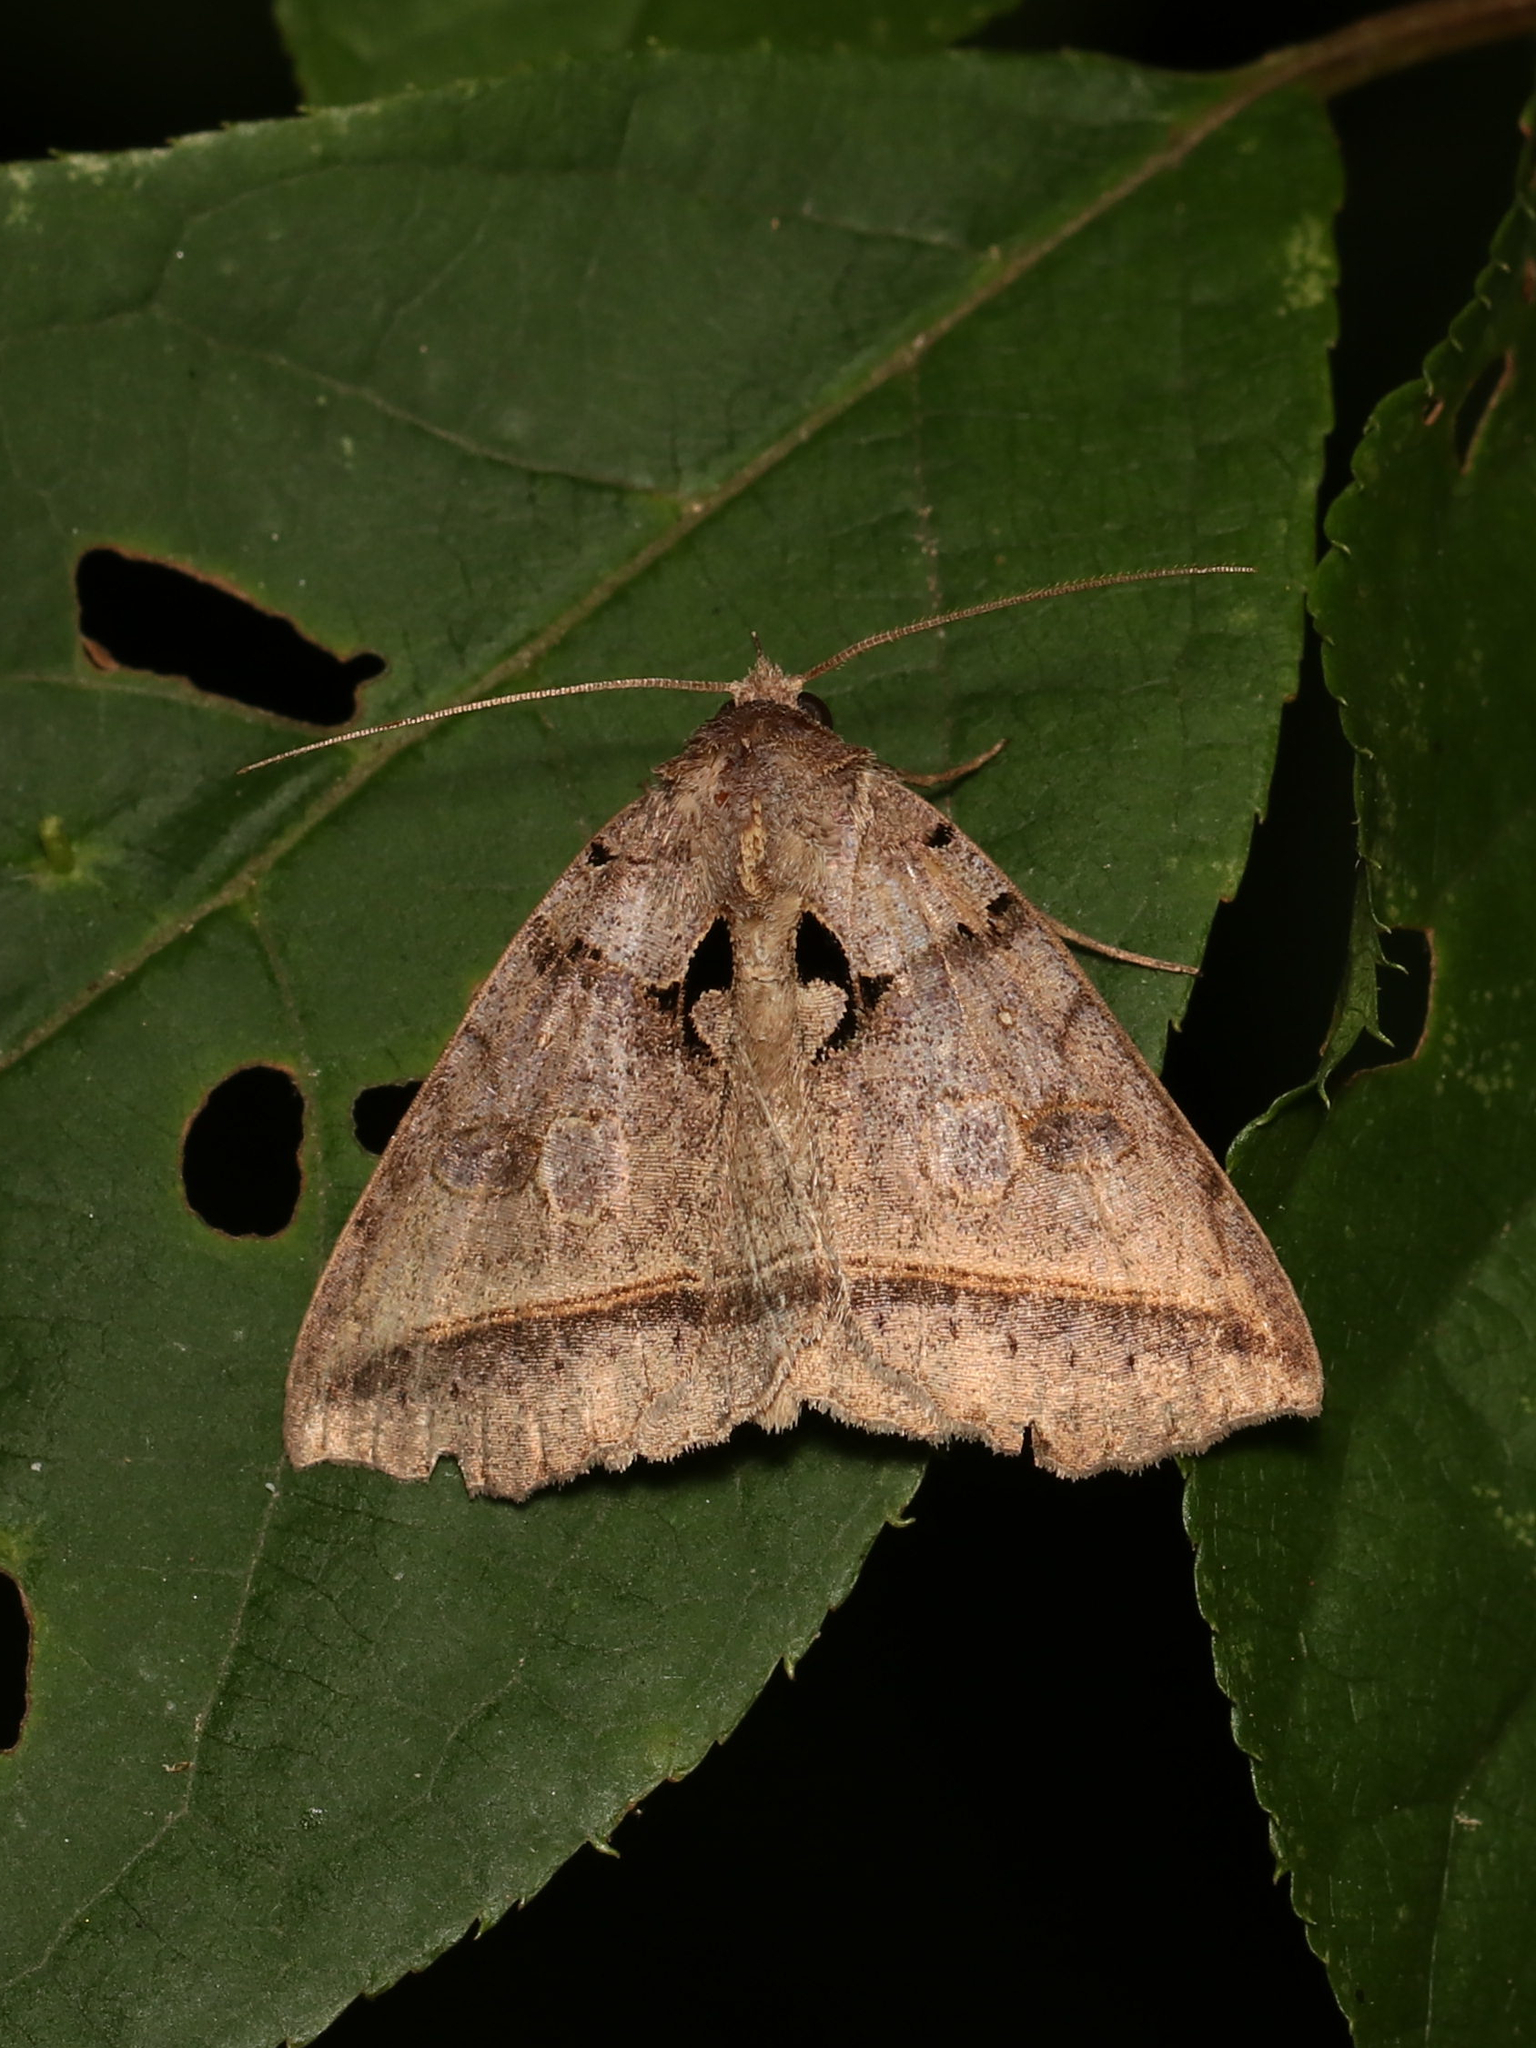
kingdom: Animalia
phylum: Arthropoda
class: Insecta
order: Lepidoptera
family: Erebidae
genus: Celiptera
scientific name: Celiptera frustulum
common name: Black bit moth
